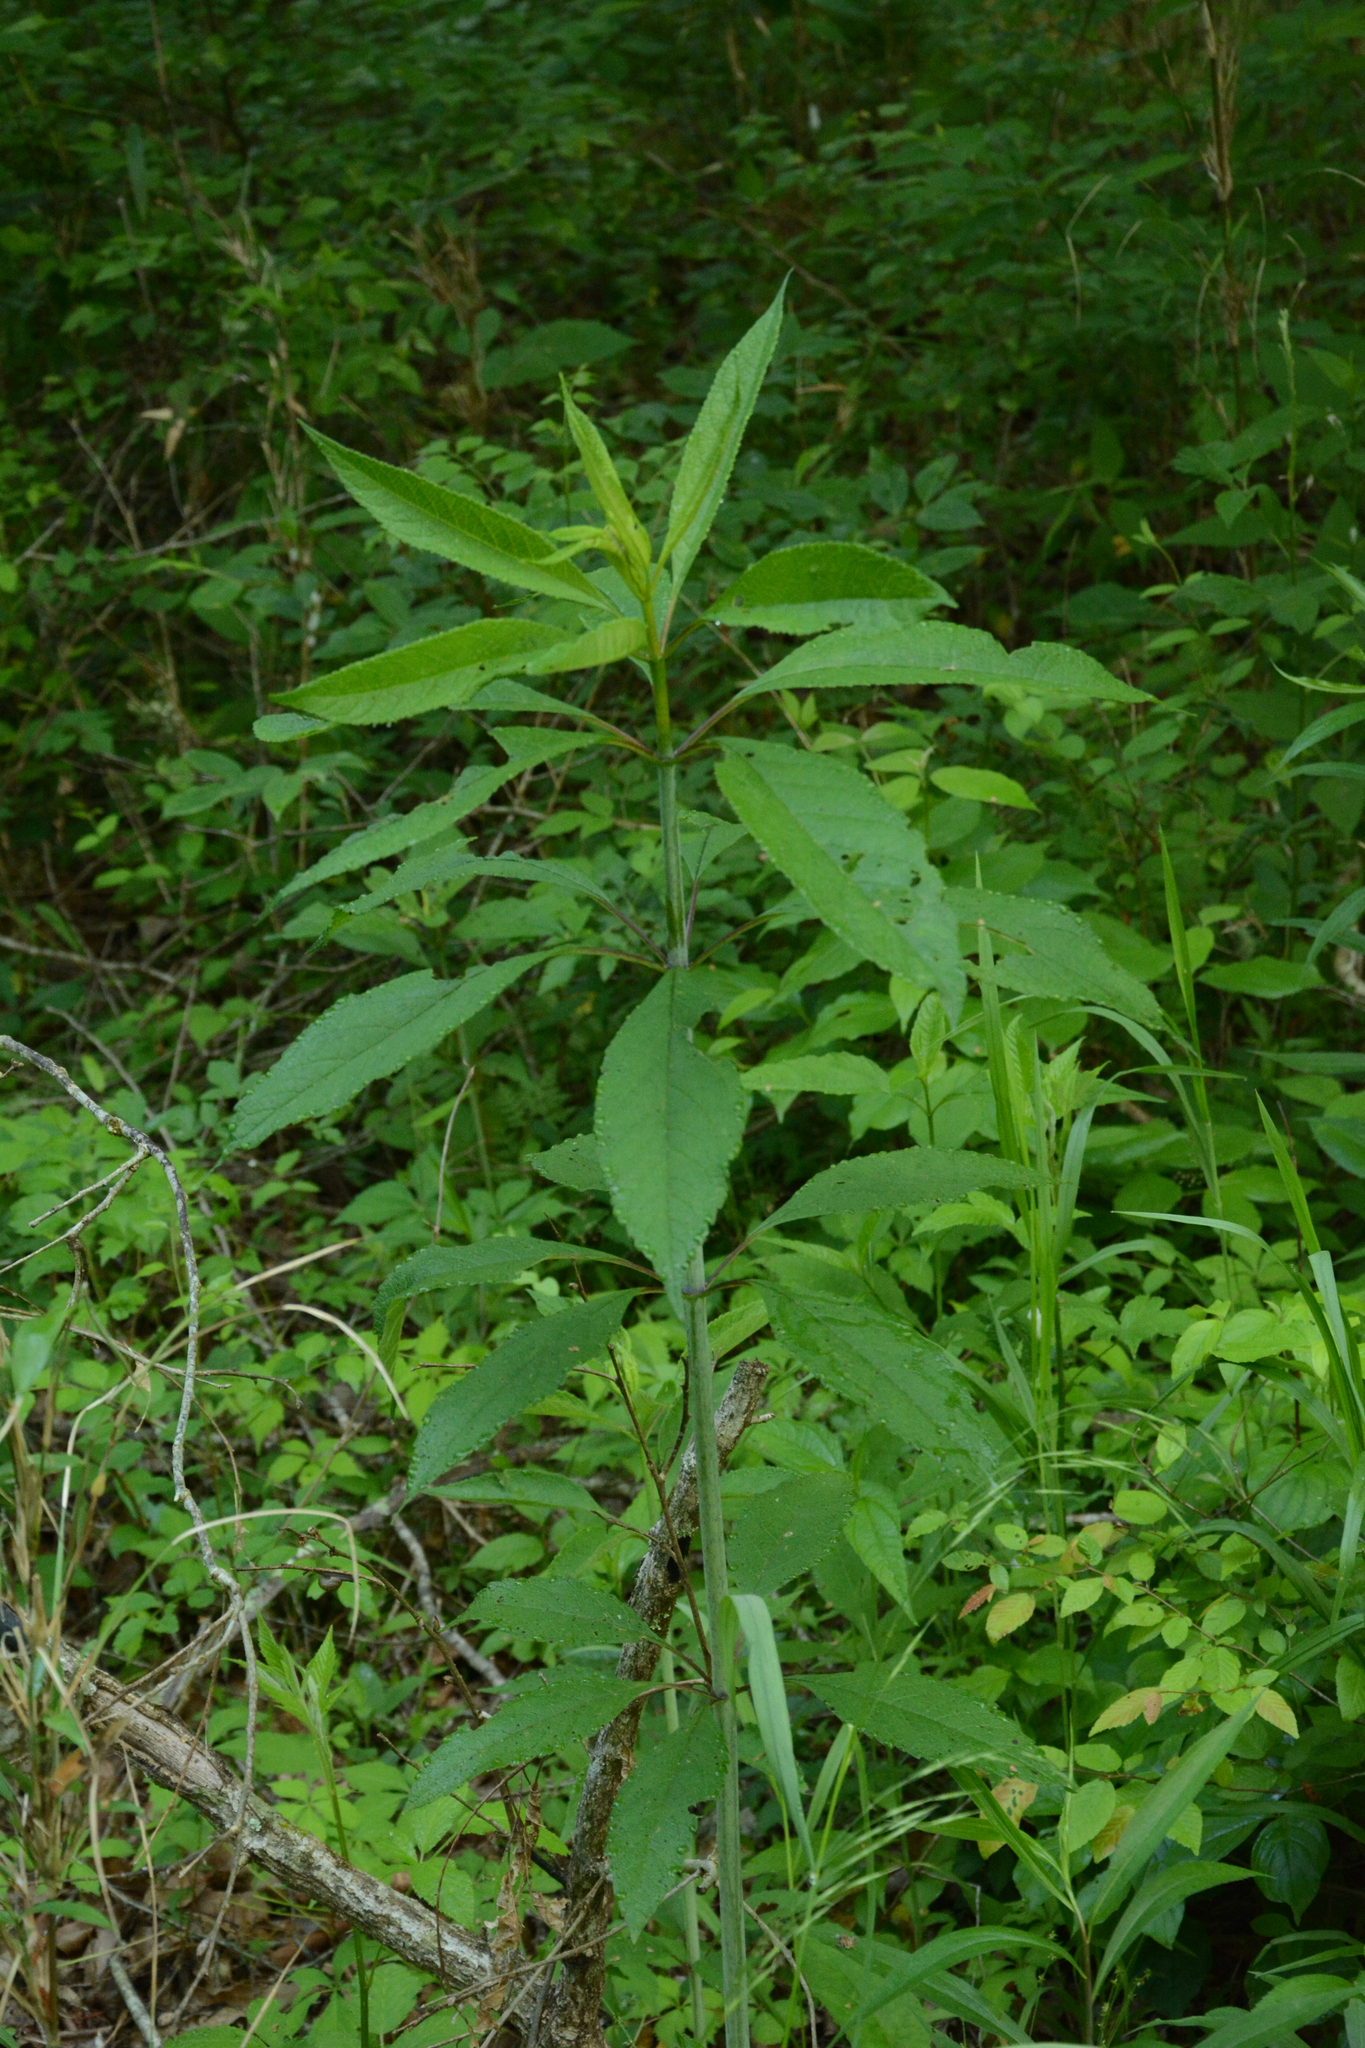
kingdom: Plantae
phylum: Tracheophyta
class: Magnoliopsida
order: Asterales
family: Asteraceae
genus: Eutrochium
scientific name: Eutrochium fistulosum
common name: Trumpetweed
